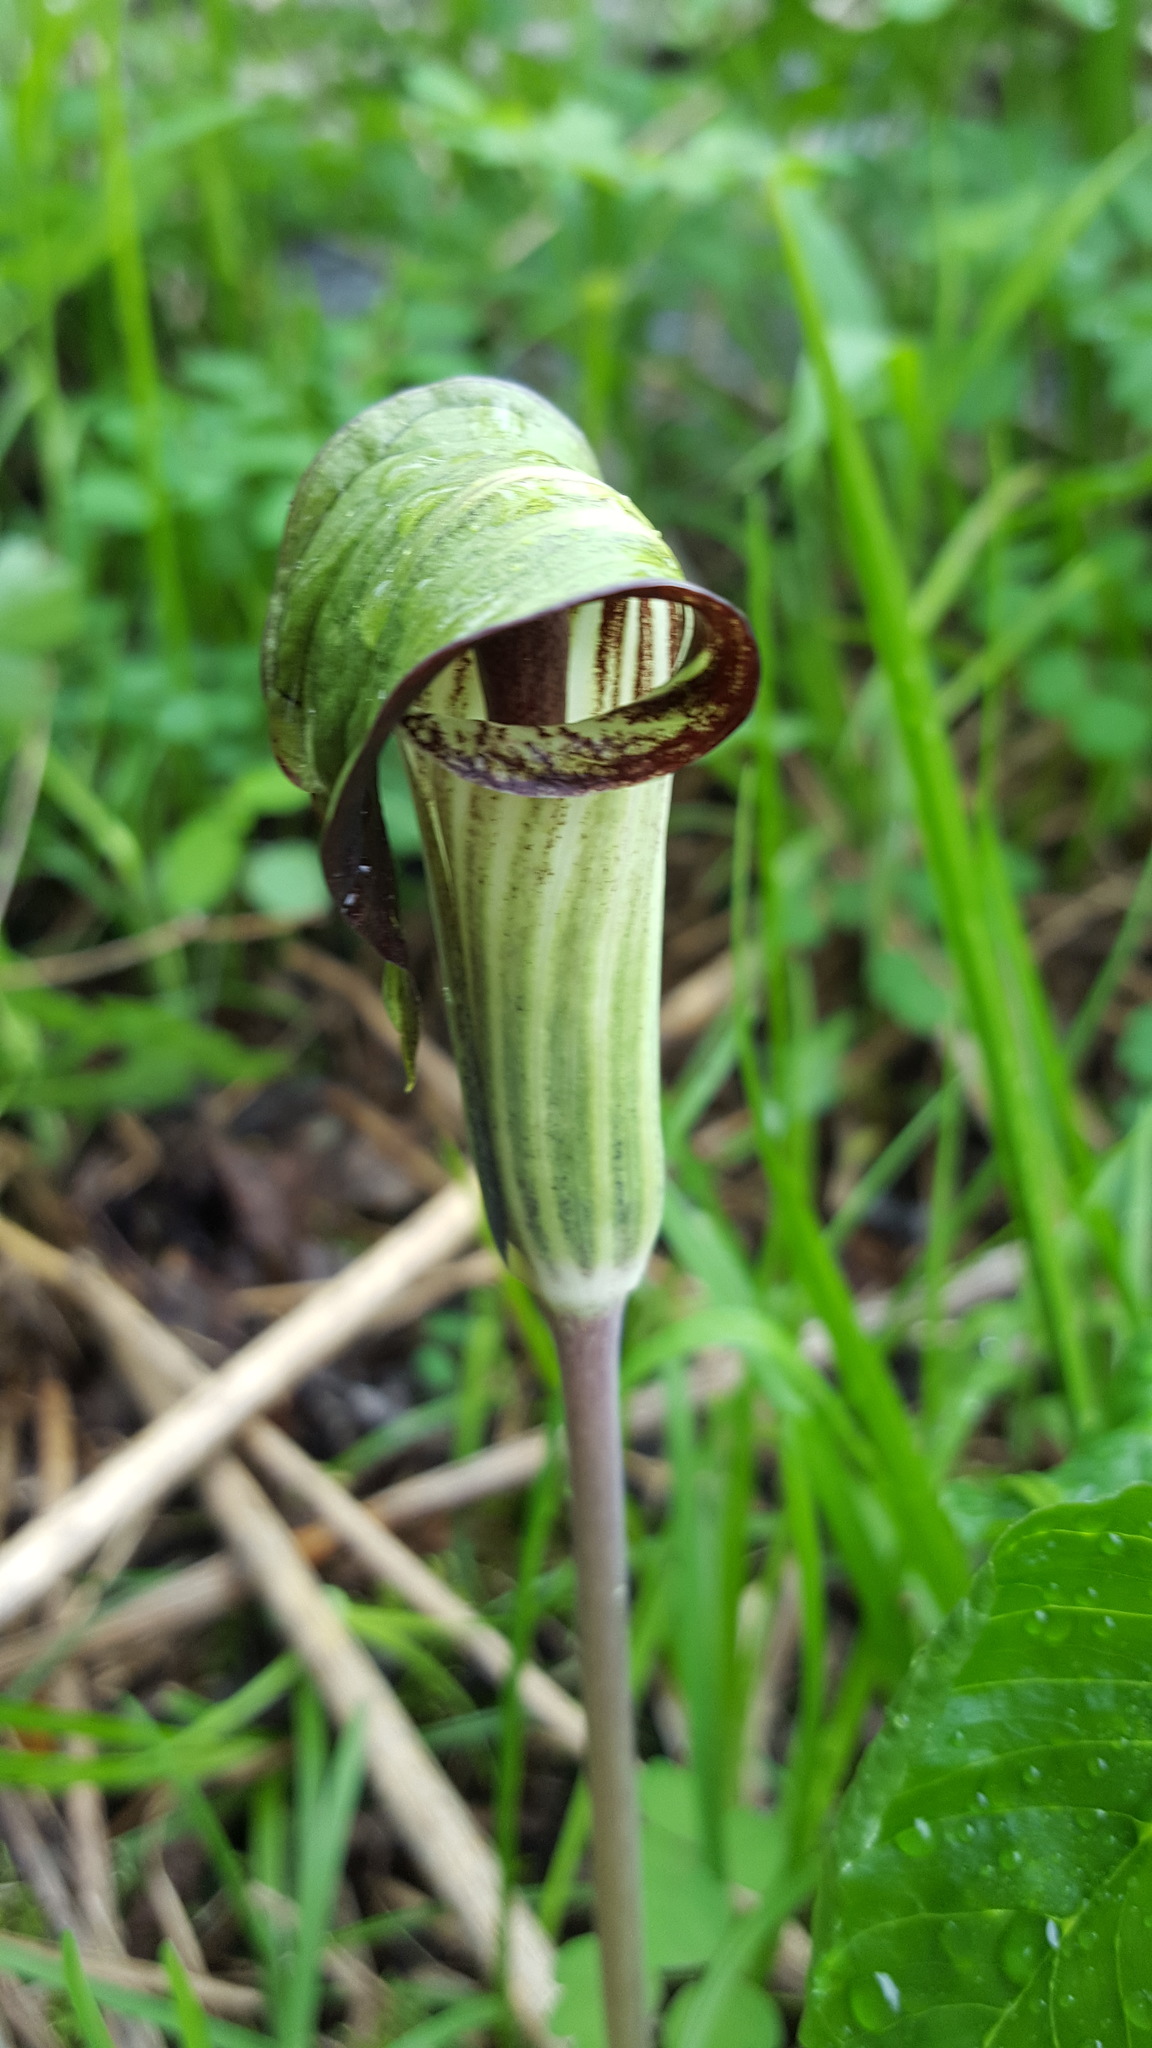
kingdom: Plantae
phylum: Tracheophyta
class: Liliopsida
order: Alismatales
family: Araceae
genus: Arisaema
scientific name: Arisaema triphyllum
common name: Jack-in-the-pulpit
